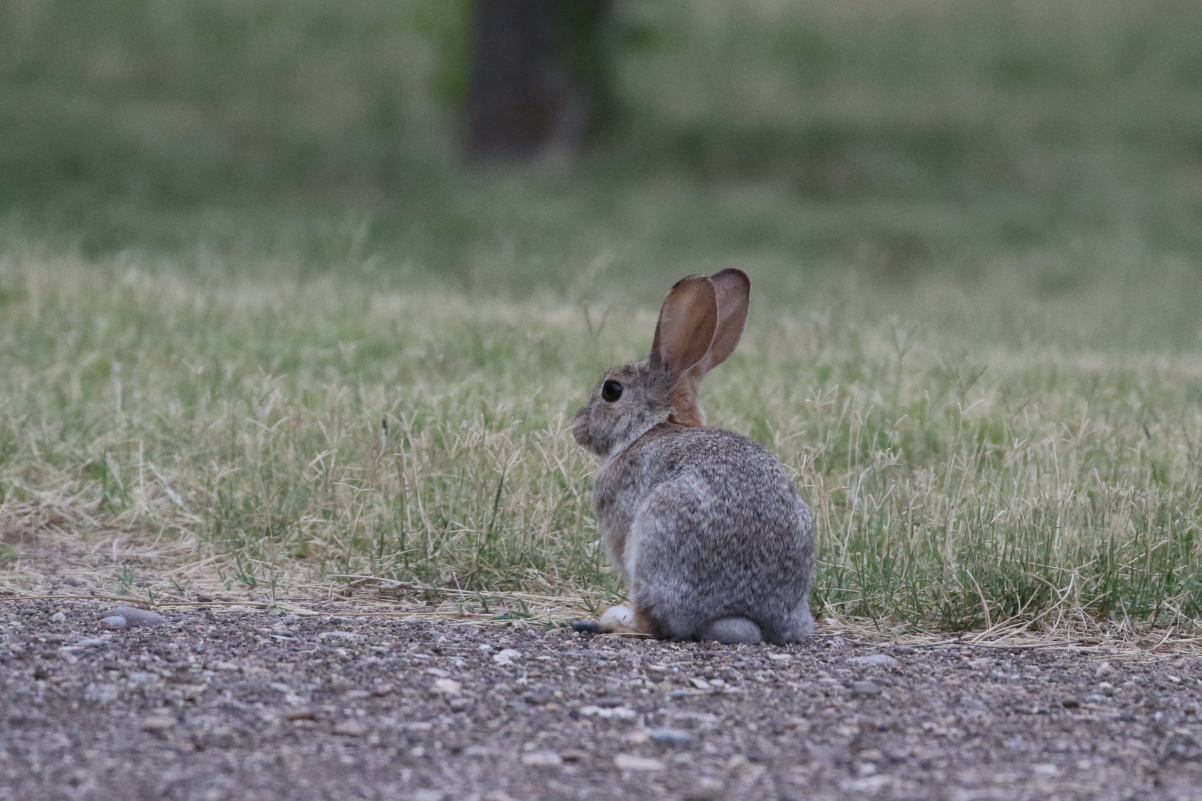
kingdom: Animalia
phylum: Chordata
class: Mammalia
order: Lagomorpha
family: Leporidae
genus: Sylvilagus
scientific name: Sylvilagus audubonii
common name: Desert cottontail
